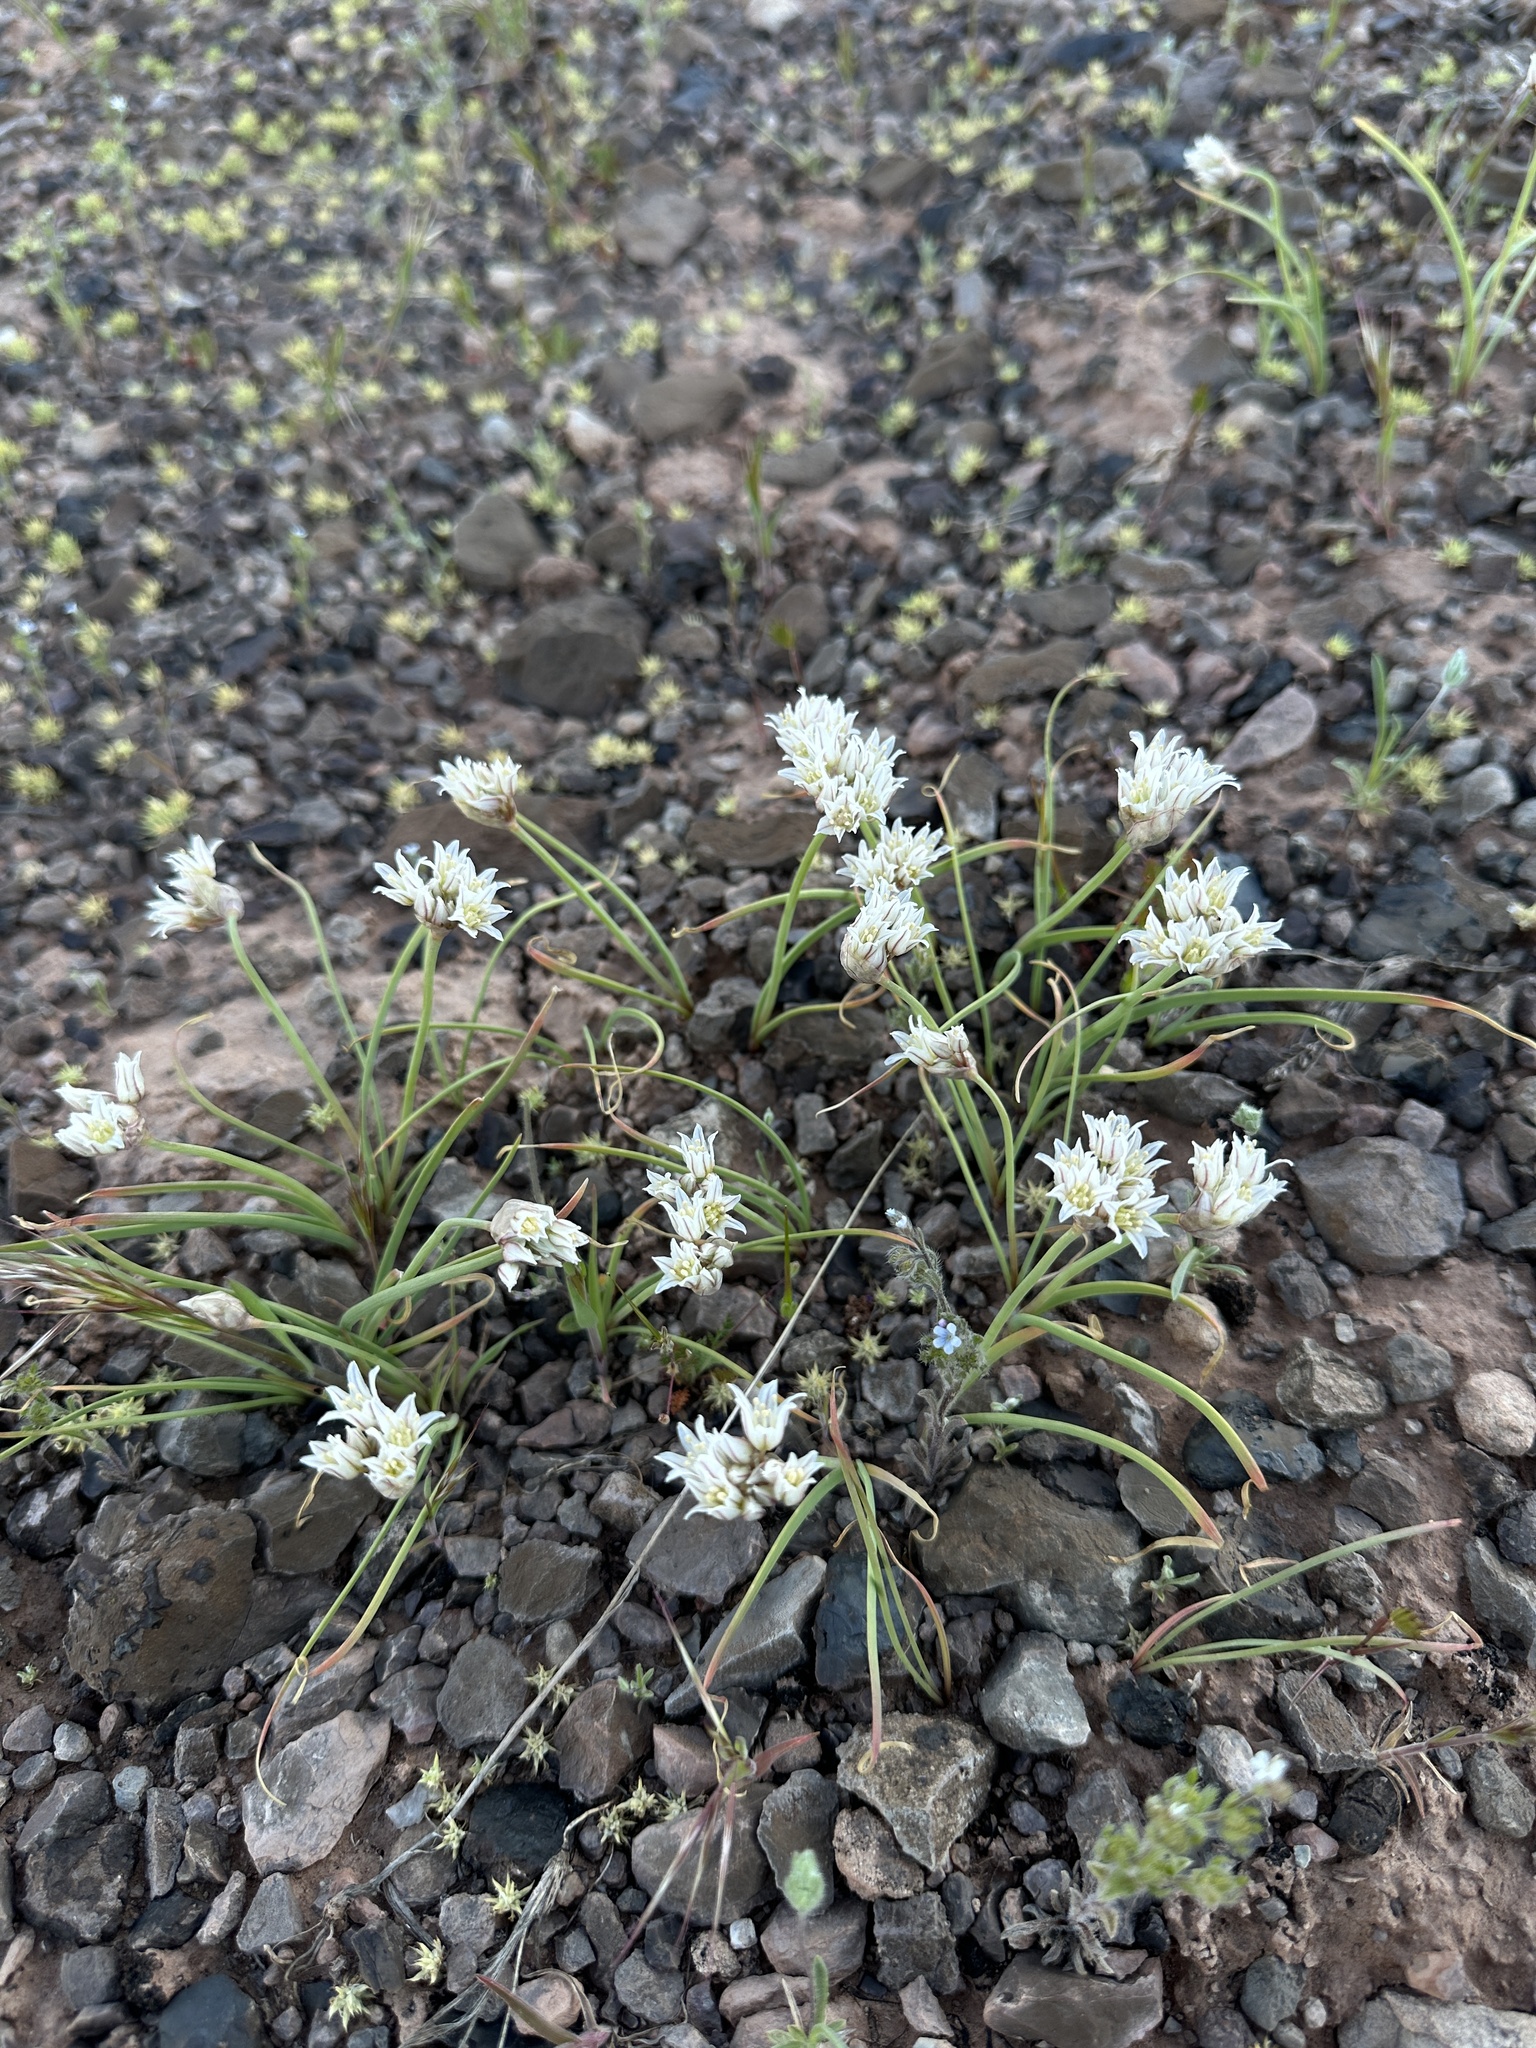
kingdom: Plantae
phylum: Tracheophyta
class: Liliopsida
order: Asparagales
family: Amaryllidaceae
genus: Allium
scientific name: Allium textile
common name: Prairie onion
